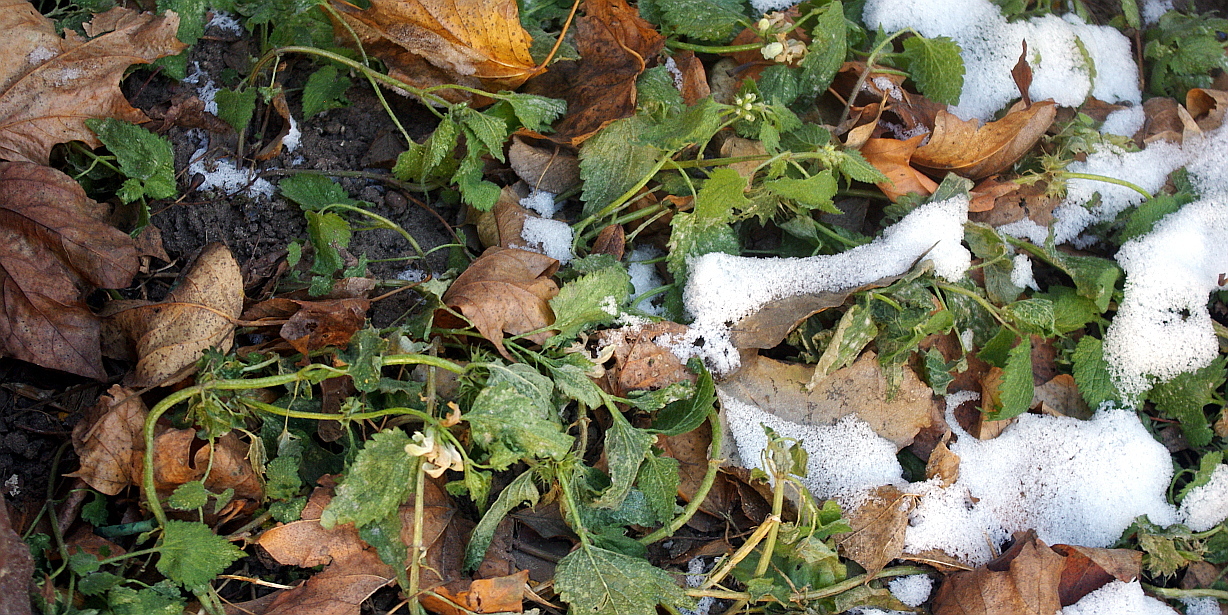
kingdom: Plantae
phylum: Tracheophyta
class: Magnoliopsida
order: Lamiales
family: Lamiaceae
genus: Lamium
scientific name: Lamium album
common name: White dead-nettle
